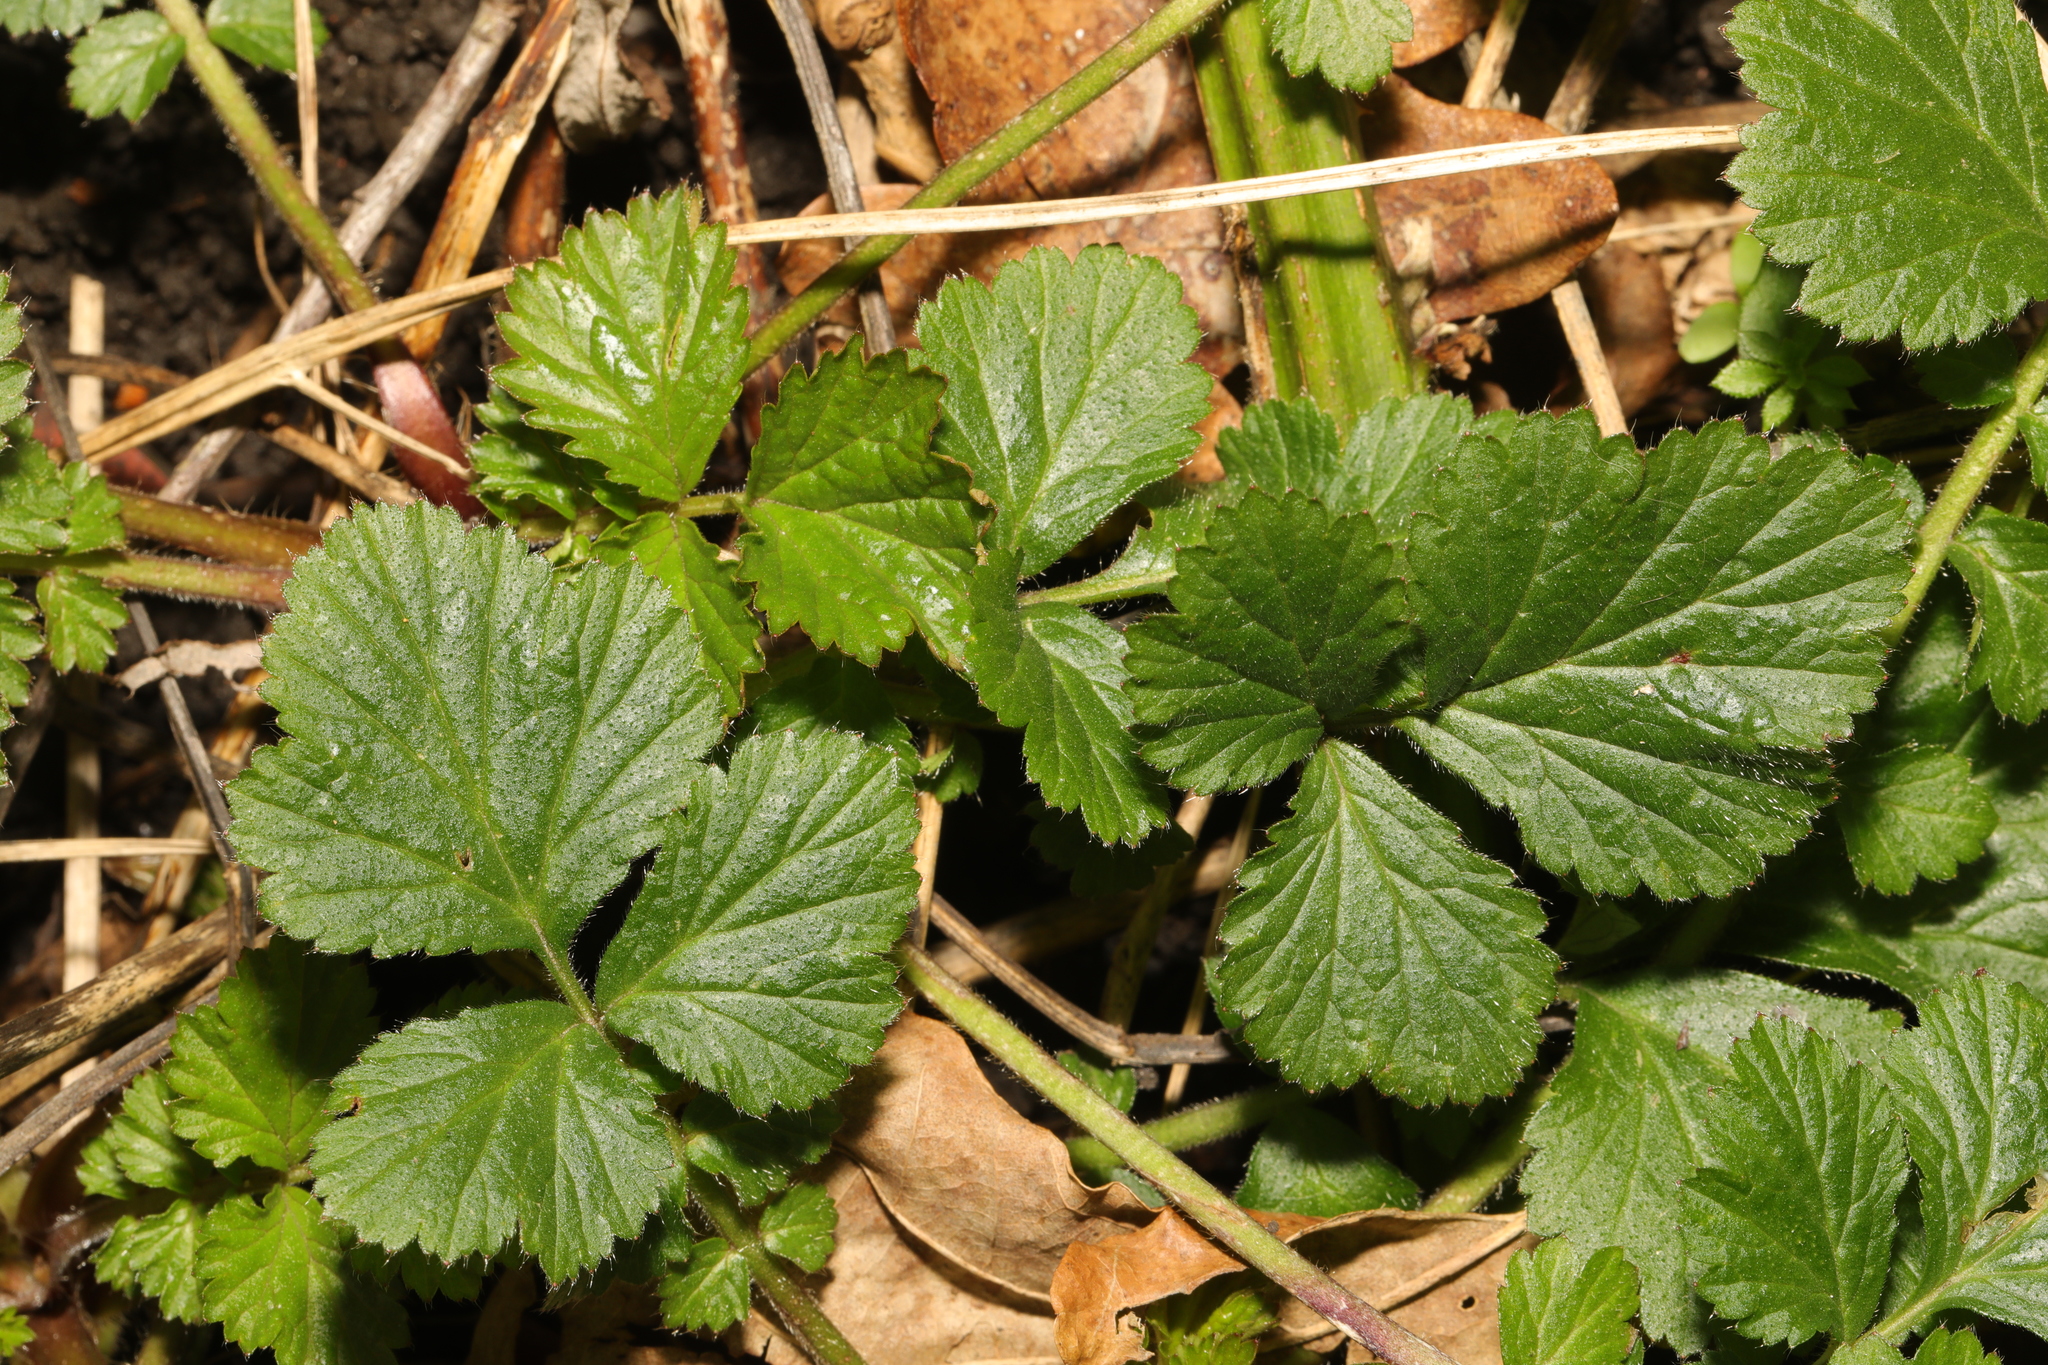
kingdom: Plantae
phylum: Tracheophyta
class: Magnoliopsida
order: Rosales
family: Rosaceae
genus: Geum
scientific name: Geum urbanum
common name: Wood avens
